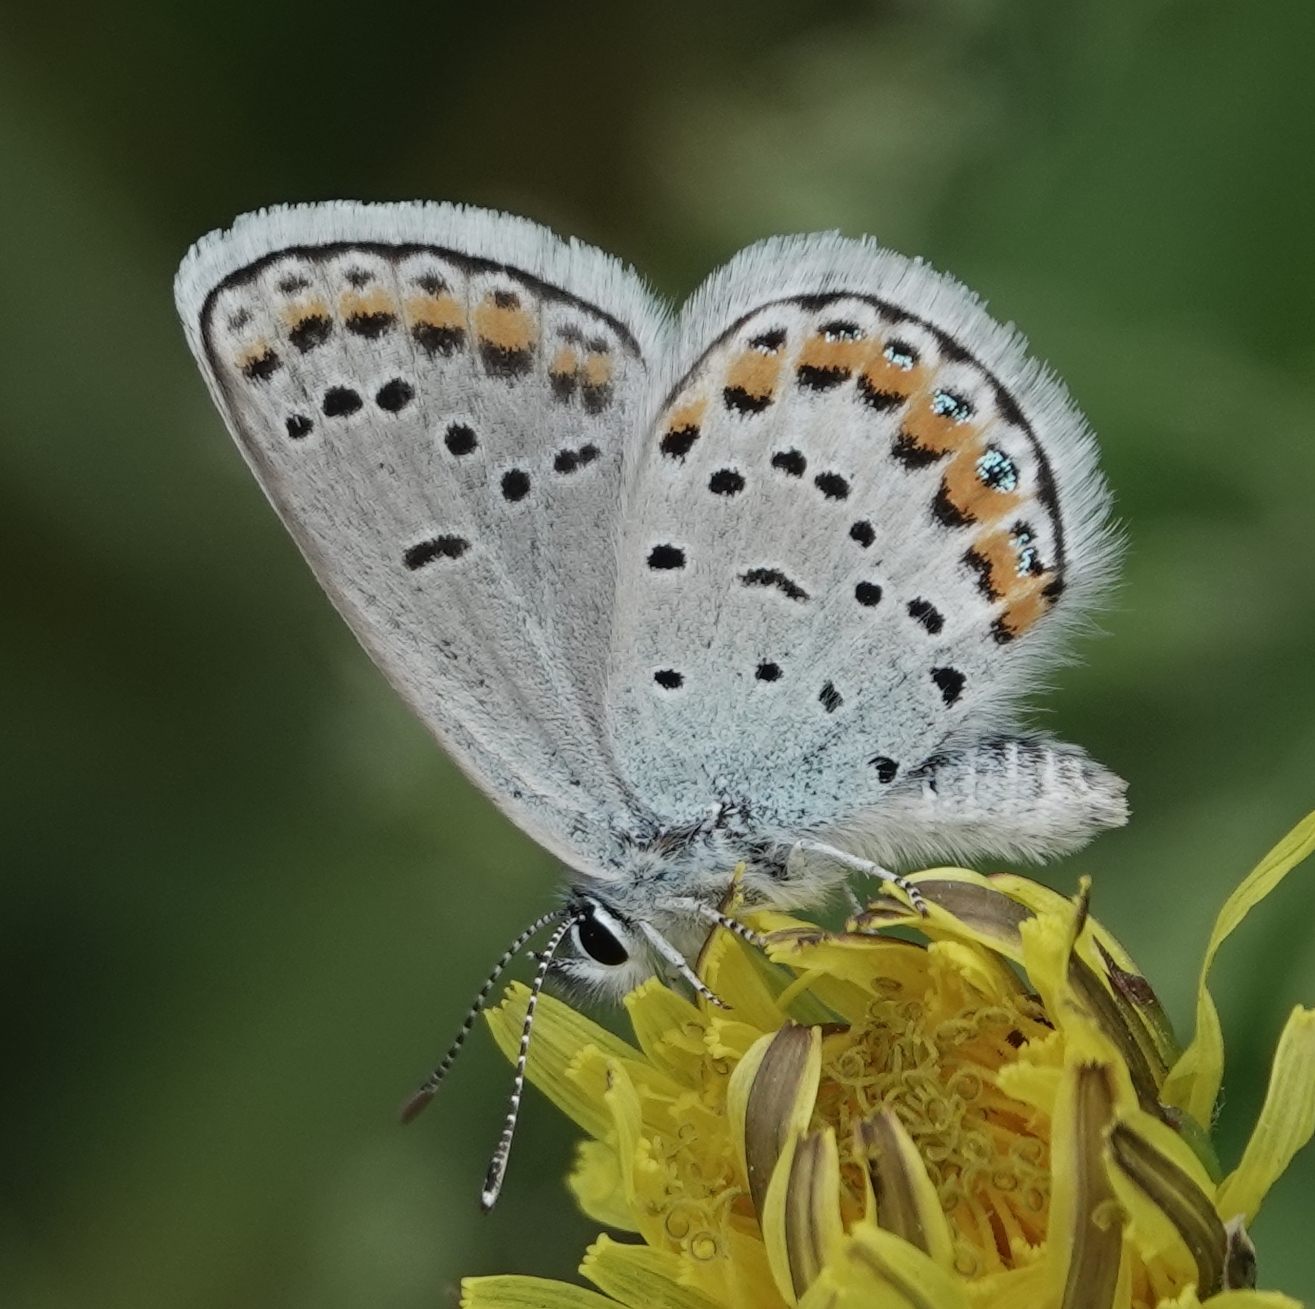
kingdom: Animalia
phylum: Arthropoda
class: Insecta
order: Lepidoptera
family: Lycaenidae
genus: Lycaeides
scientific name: Lycaeides melissa
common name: Melissa blue
